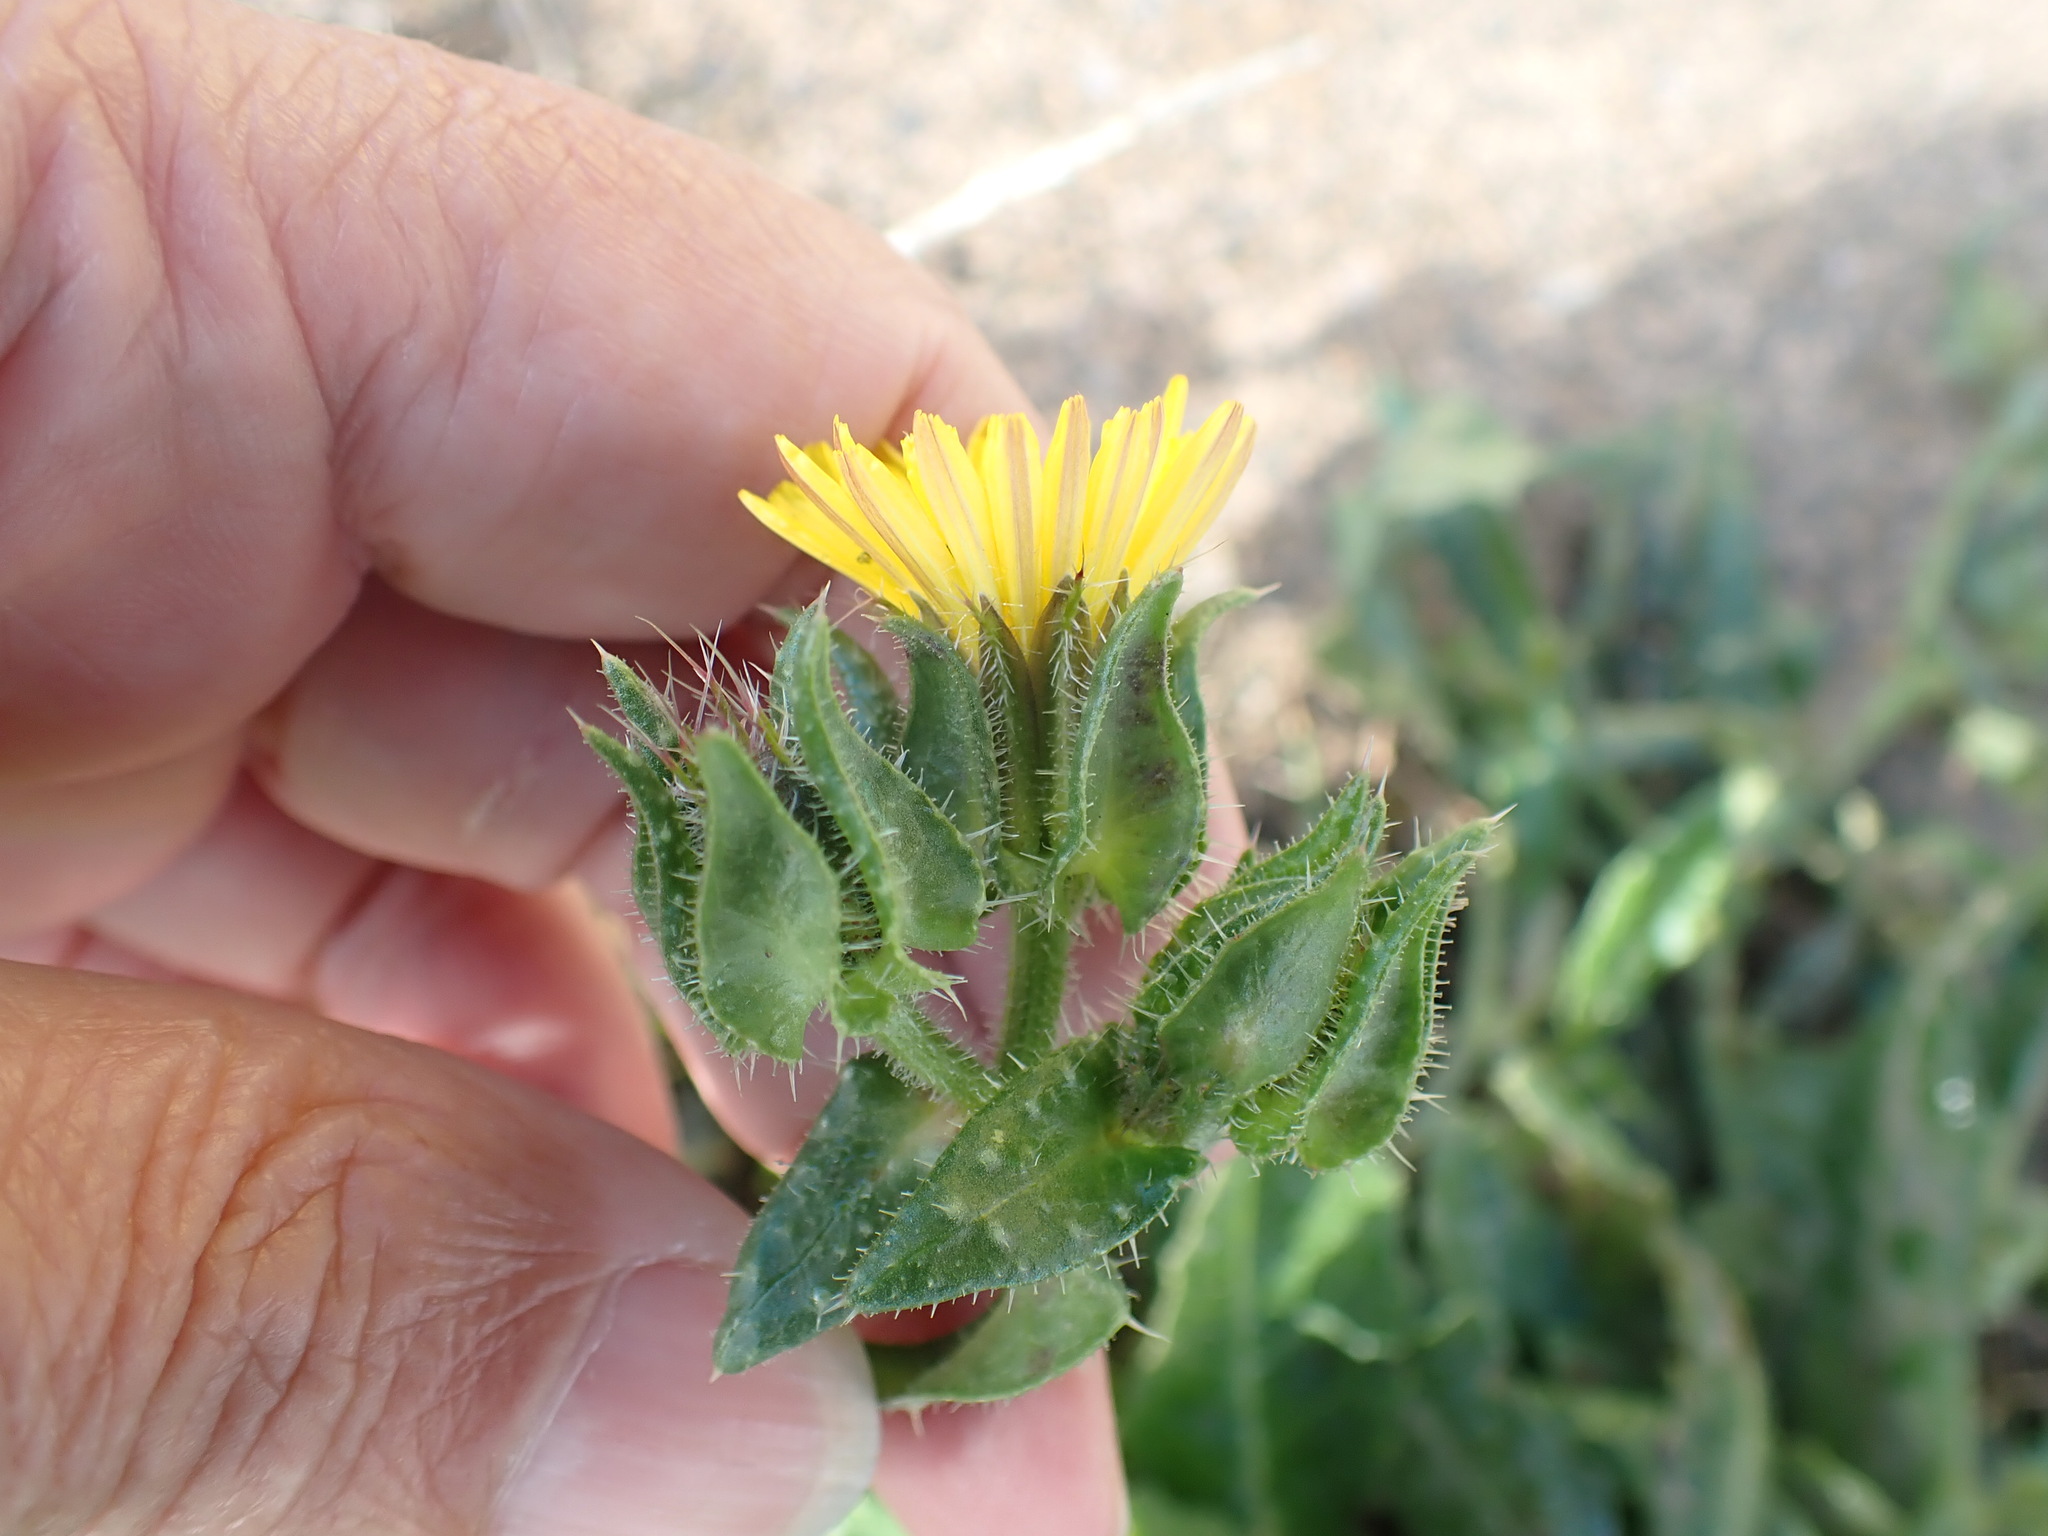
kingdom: Plantae
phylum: Tracheophyta
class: Magnoliopsida
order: Asterales
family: Asteraceae
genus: Helminthotheca
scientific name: Helminthotheca echioides
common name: Ox-tongue
